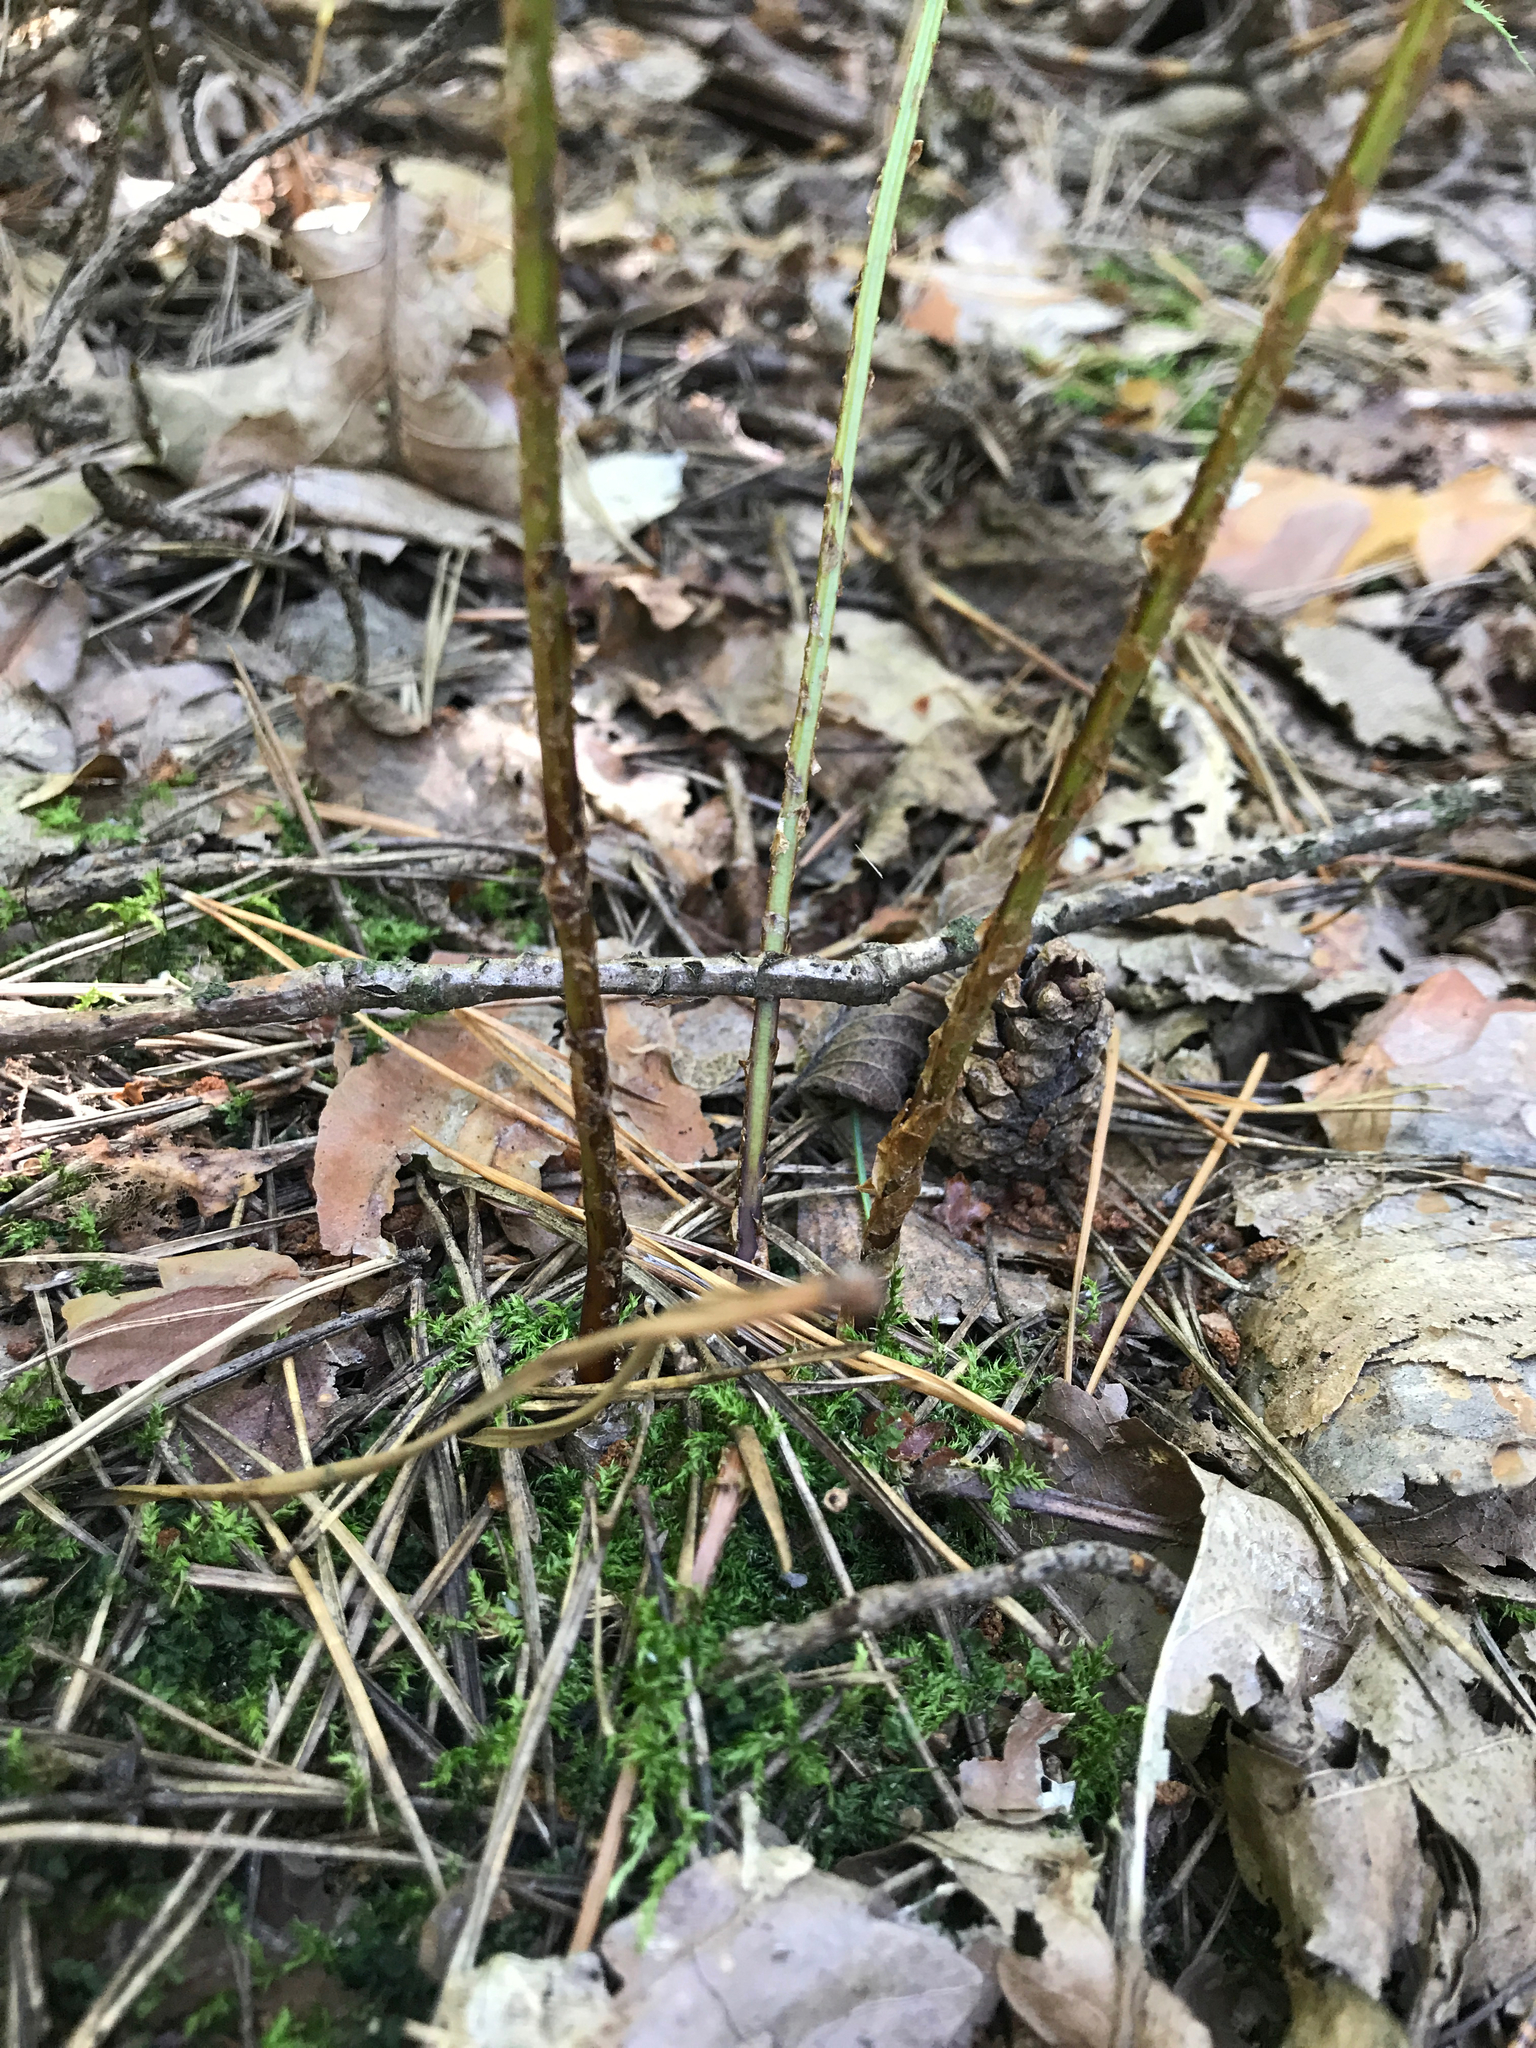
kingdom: Plantae
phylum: Tracheophyta
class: Polypodiopsida
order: Polypodiales
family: Dryopteridaceae
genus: Dryopteris
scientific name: Dryopteris carthusiana
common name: Narrow buckler-fern
